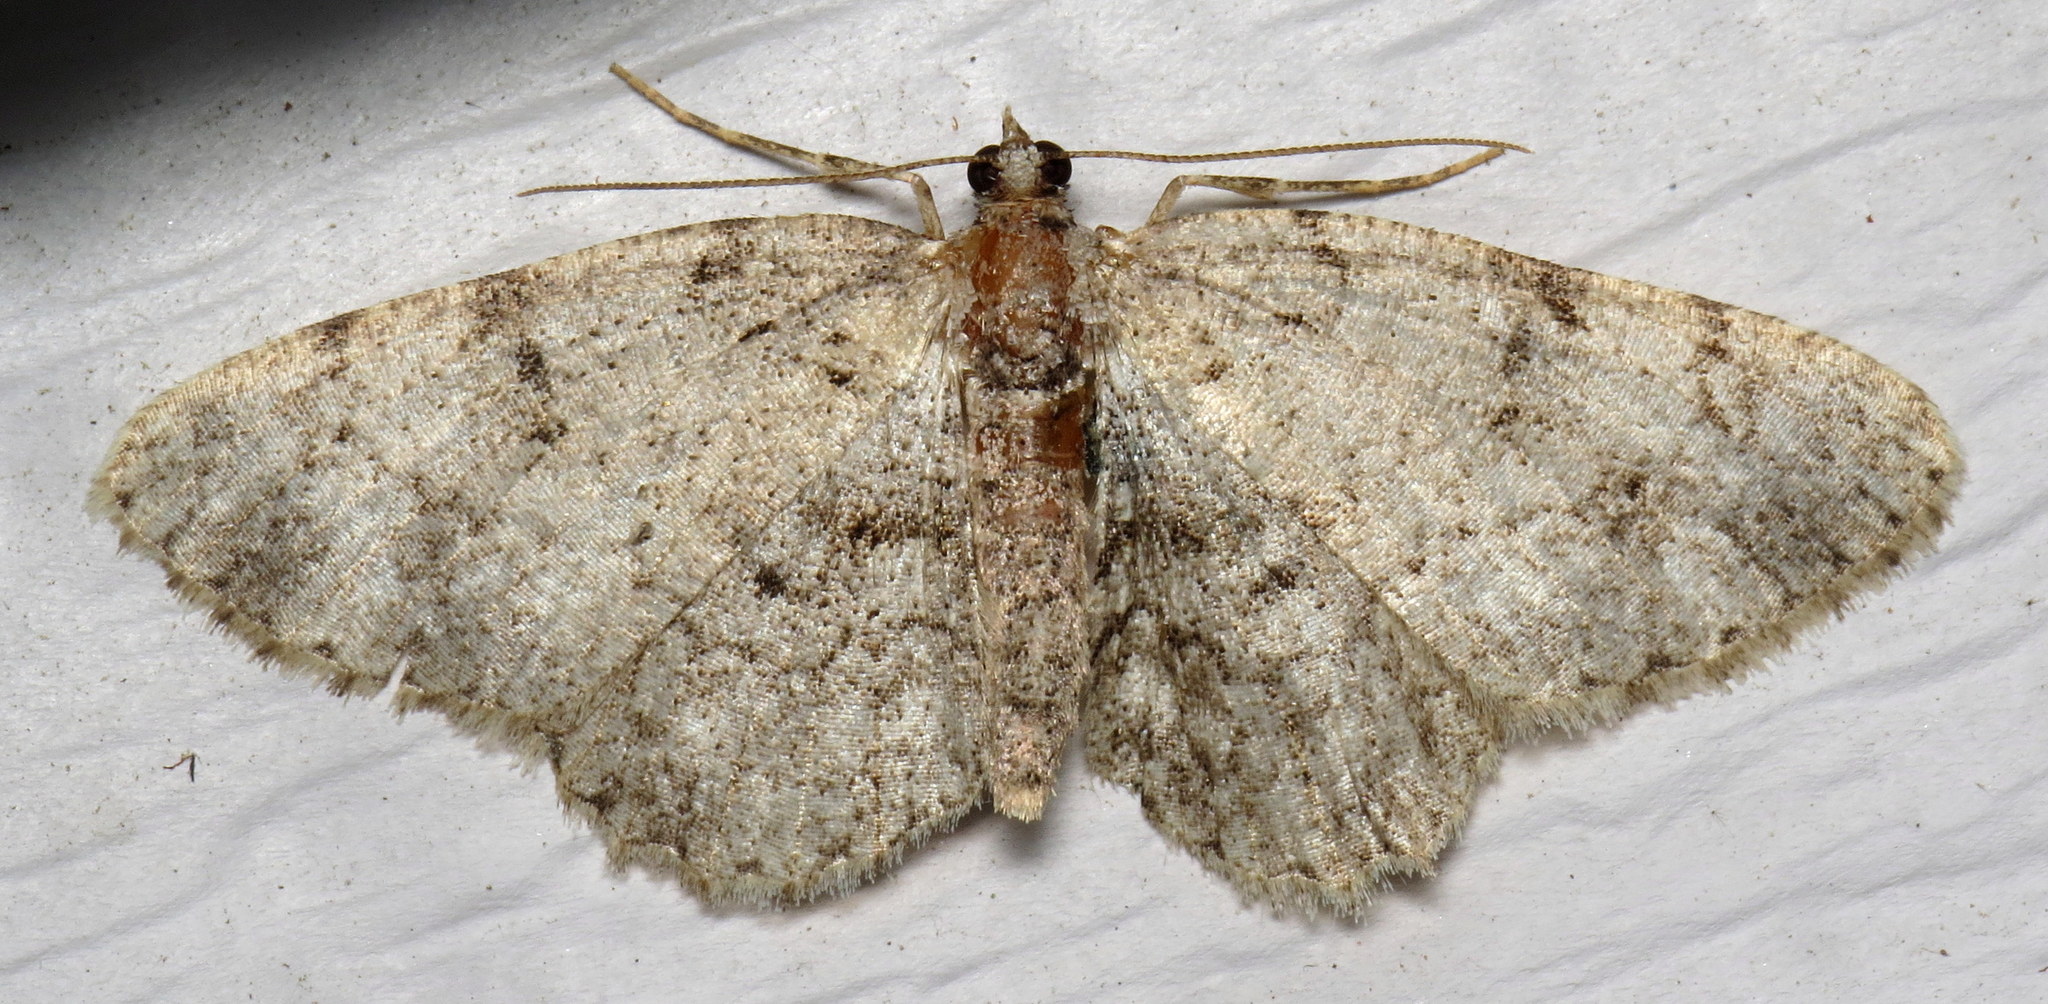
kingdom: Animalia
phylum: Arthropoda
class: Insecta
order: Lepidoptera
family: Geometridae
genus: Protoboarmia
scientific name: Protoboarmia porcelaria
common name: Porcelain gray
